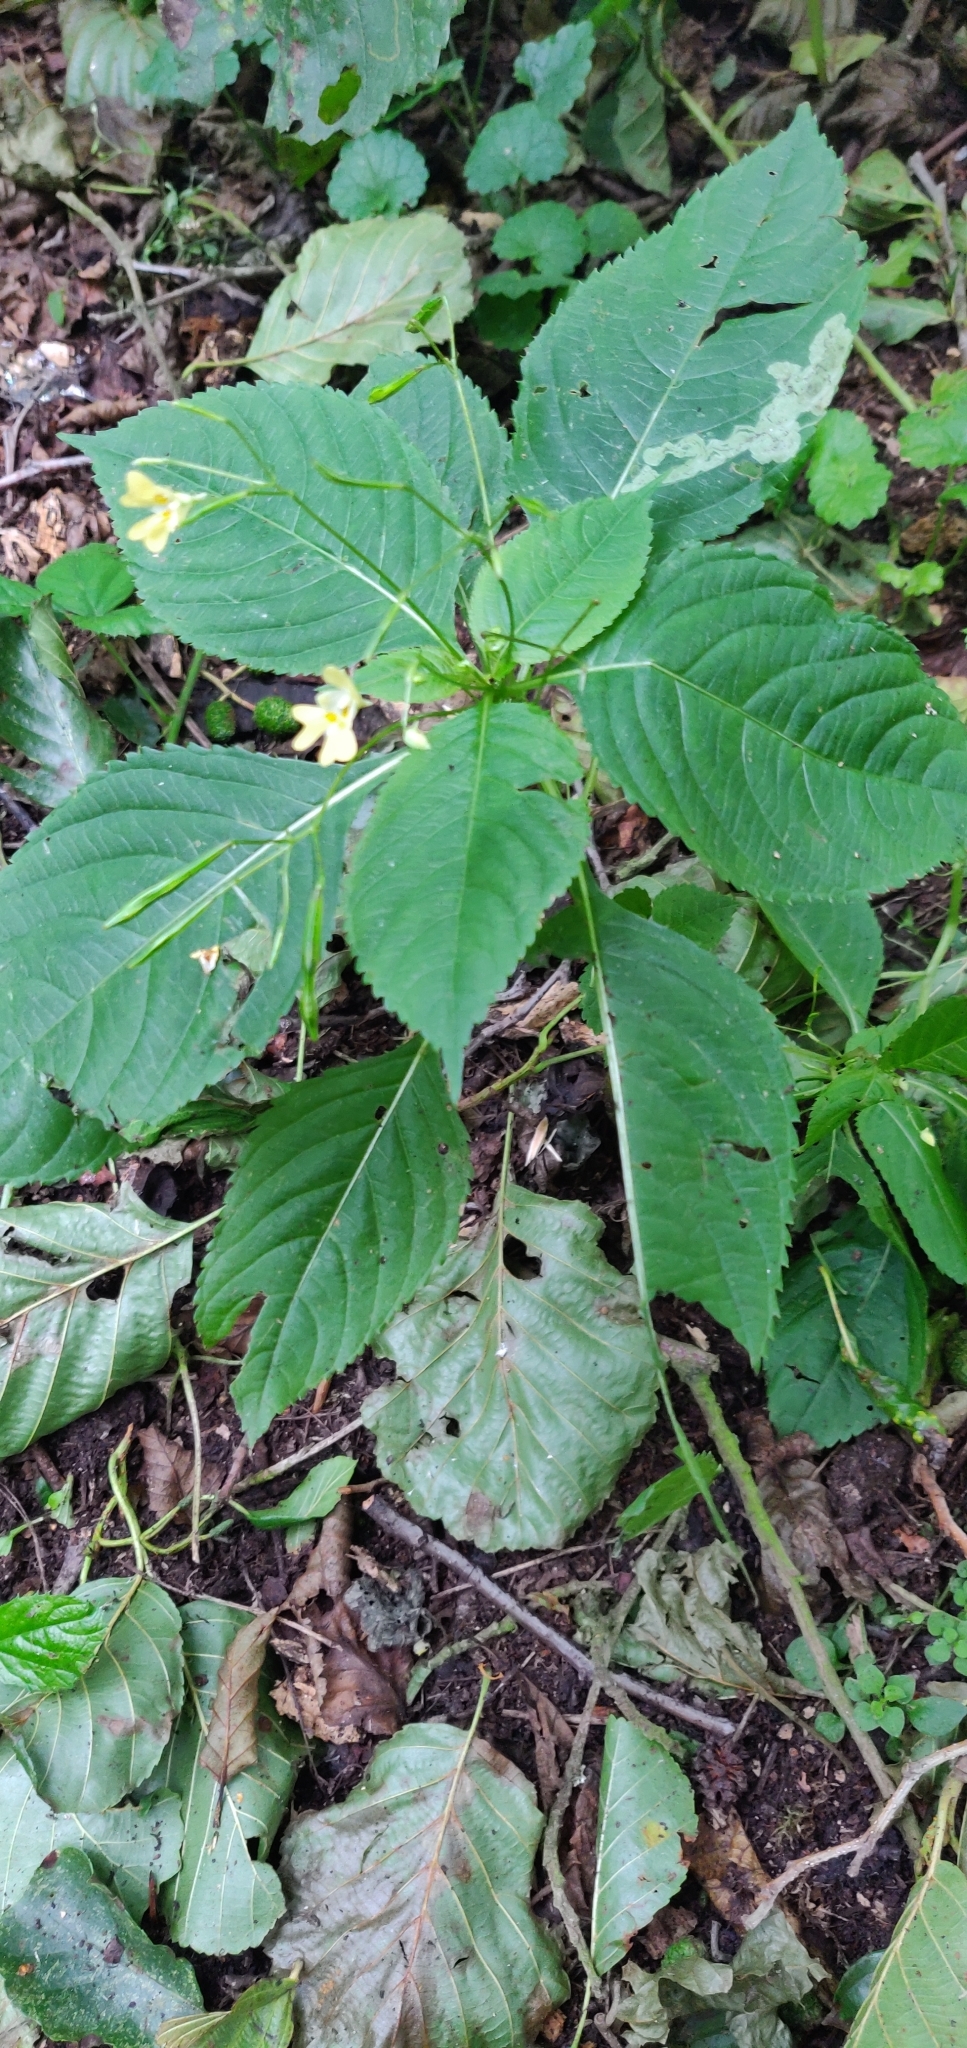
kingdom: Plantae
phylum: Tracheophyta
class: Magnoliopsida
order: Ericales
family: Balsaminaceae
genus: Impatiens
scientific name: Impatiens parviflora
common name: Small balsam
